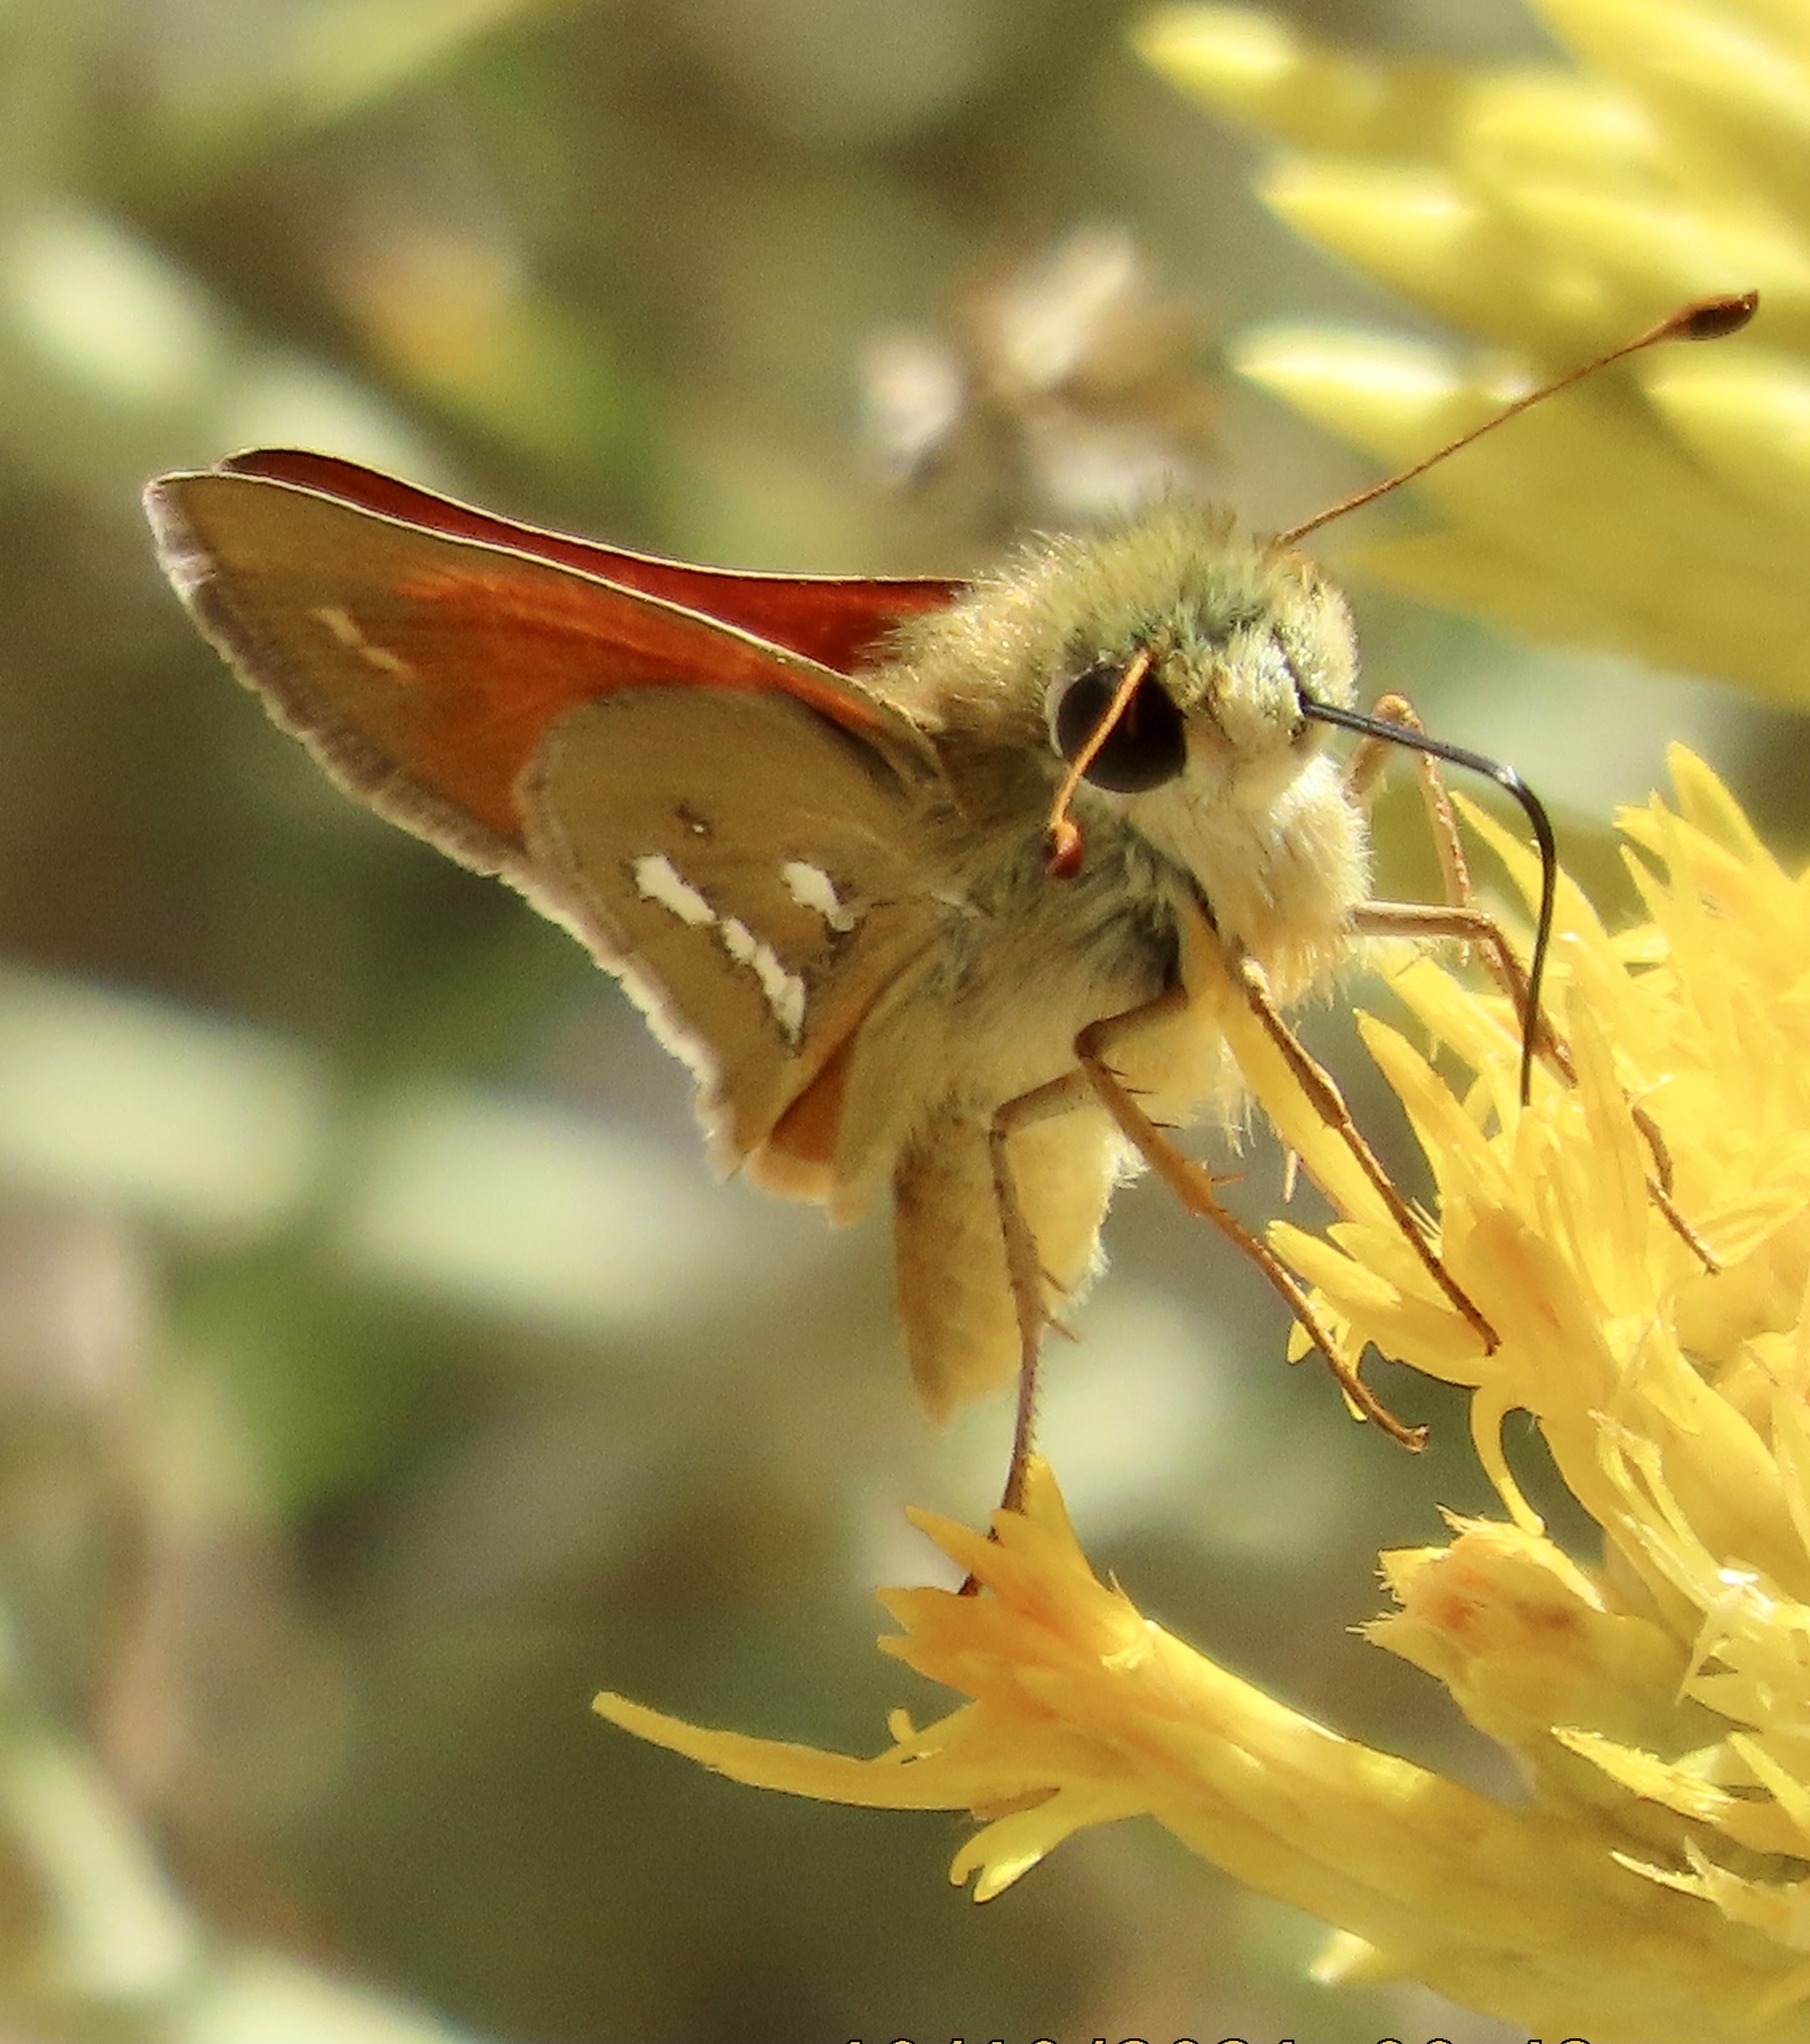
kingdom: Animalia
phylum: Arthropoda
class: Insecta
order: Lepidoptera
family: Hesperiidae
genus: Hesperia
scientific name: Hesperia columbia
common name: Columbian skipper
